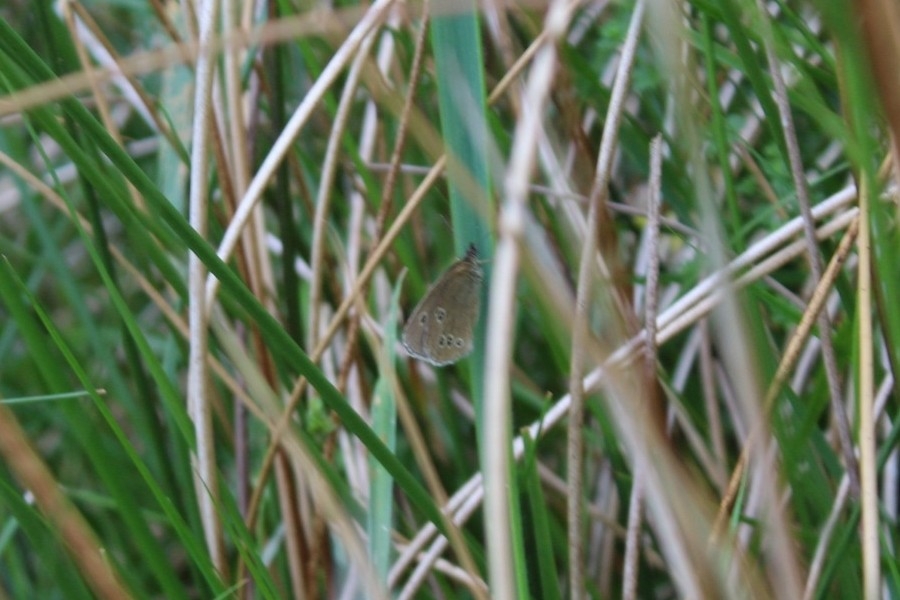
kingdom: Animalia
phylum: Arthropoda
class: Insecta
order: Lepidoptera
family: Nymphalidae
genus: Aphantopus
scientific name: Aphantopus hyperantus
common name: Ringlet
